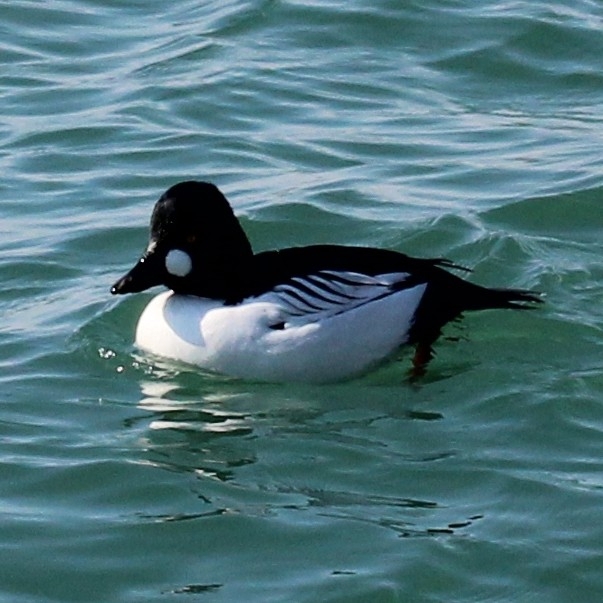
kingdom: Animalia
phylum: Chordata
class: Aves
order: Anseriformes
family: Anatidae
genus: Bucephala
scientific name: Bucephala clangula
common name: Common goldeneye
